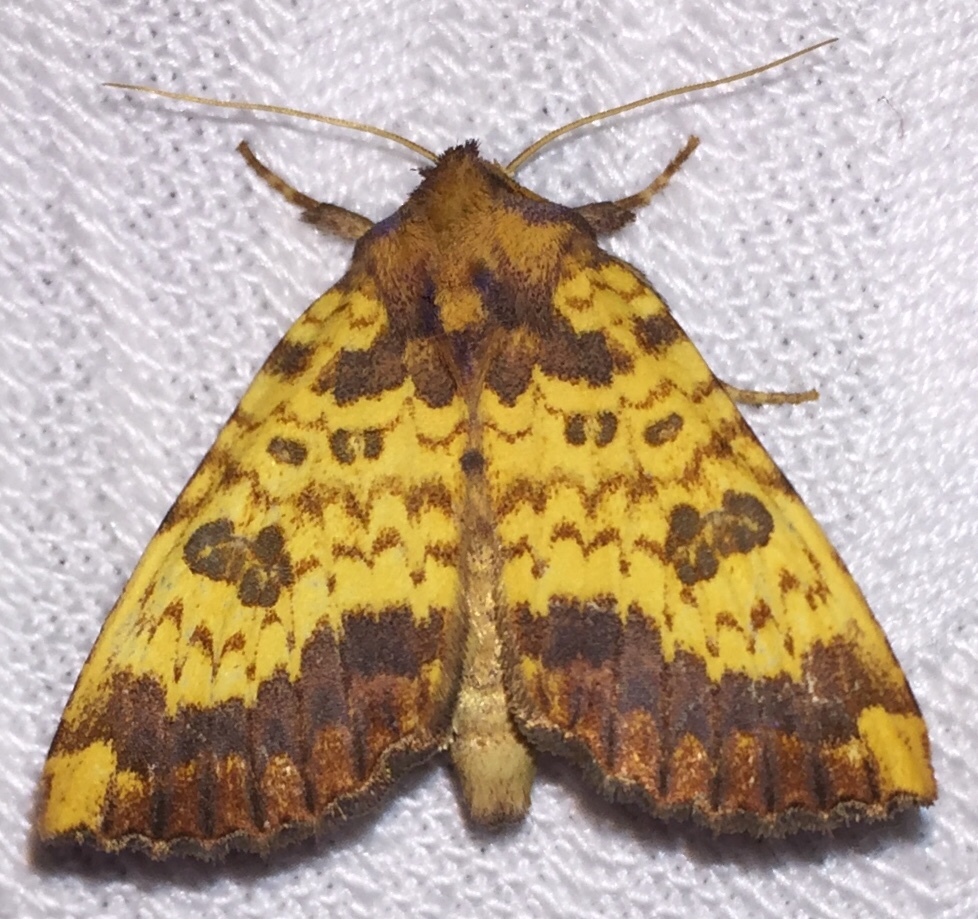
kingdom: Animalia
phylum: Arthropoda
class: Insecta
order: Lepidoptera
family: Noctuidae
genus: Papaipema
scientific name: Papaipema cerina
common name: Golden borer moth
